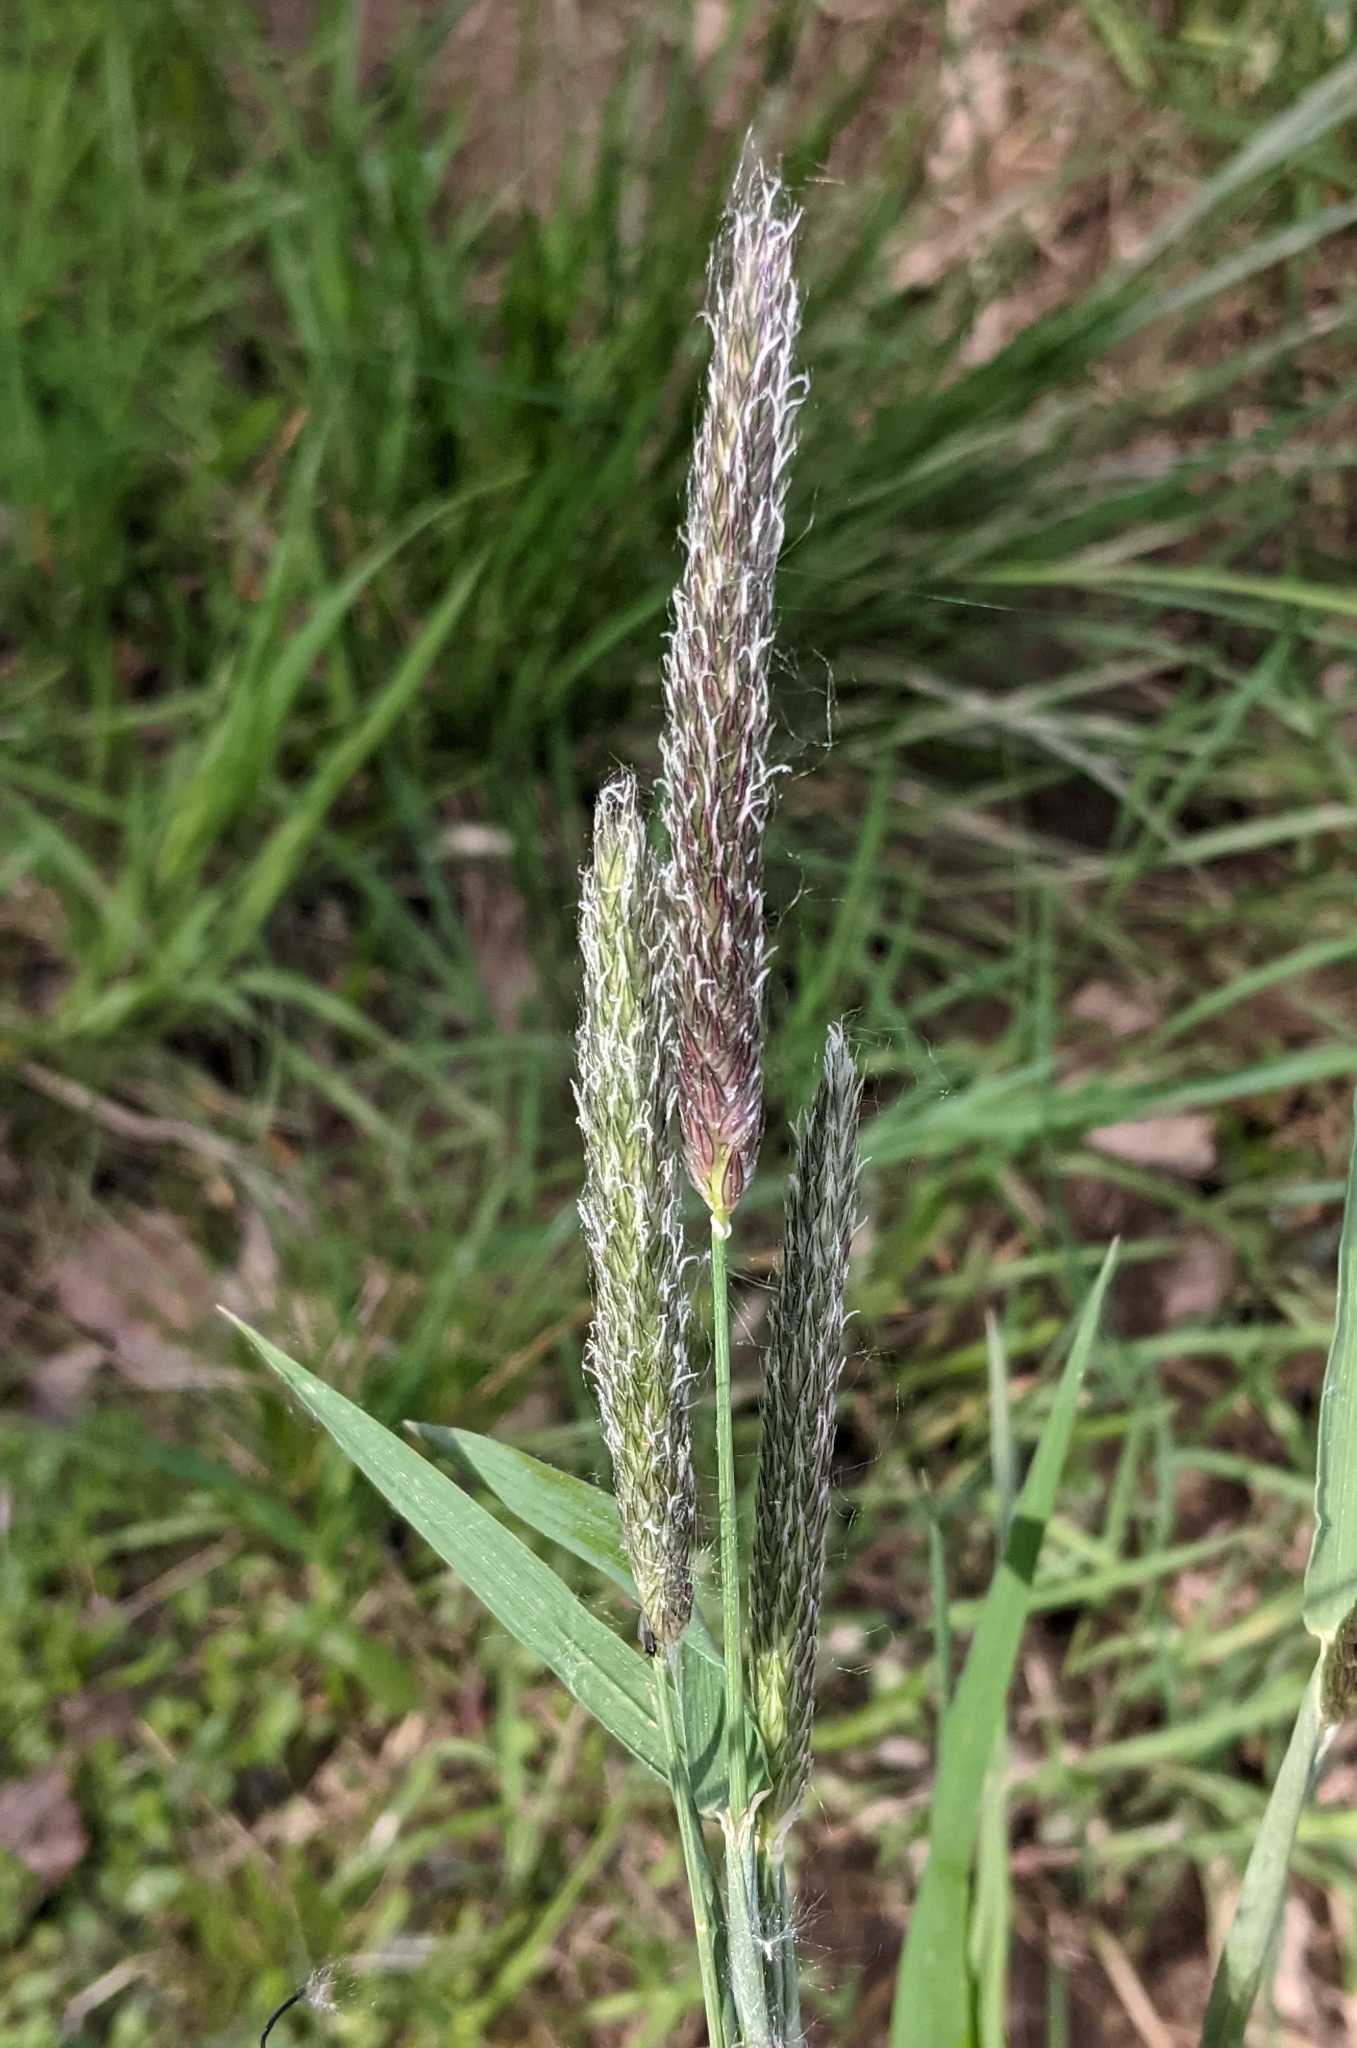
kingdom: Plantae
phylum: Tracheophyta
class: Liliopsida
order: Poales
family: Poaceae
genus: Alopecurus
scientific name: Alopecurus pratensis
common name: Meadow foxtail
